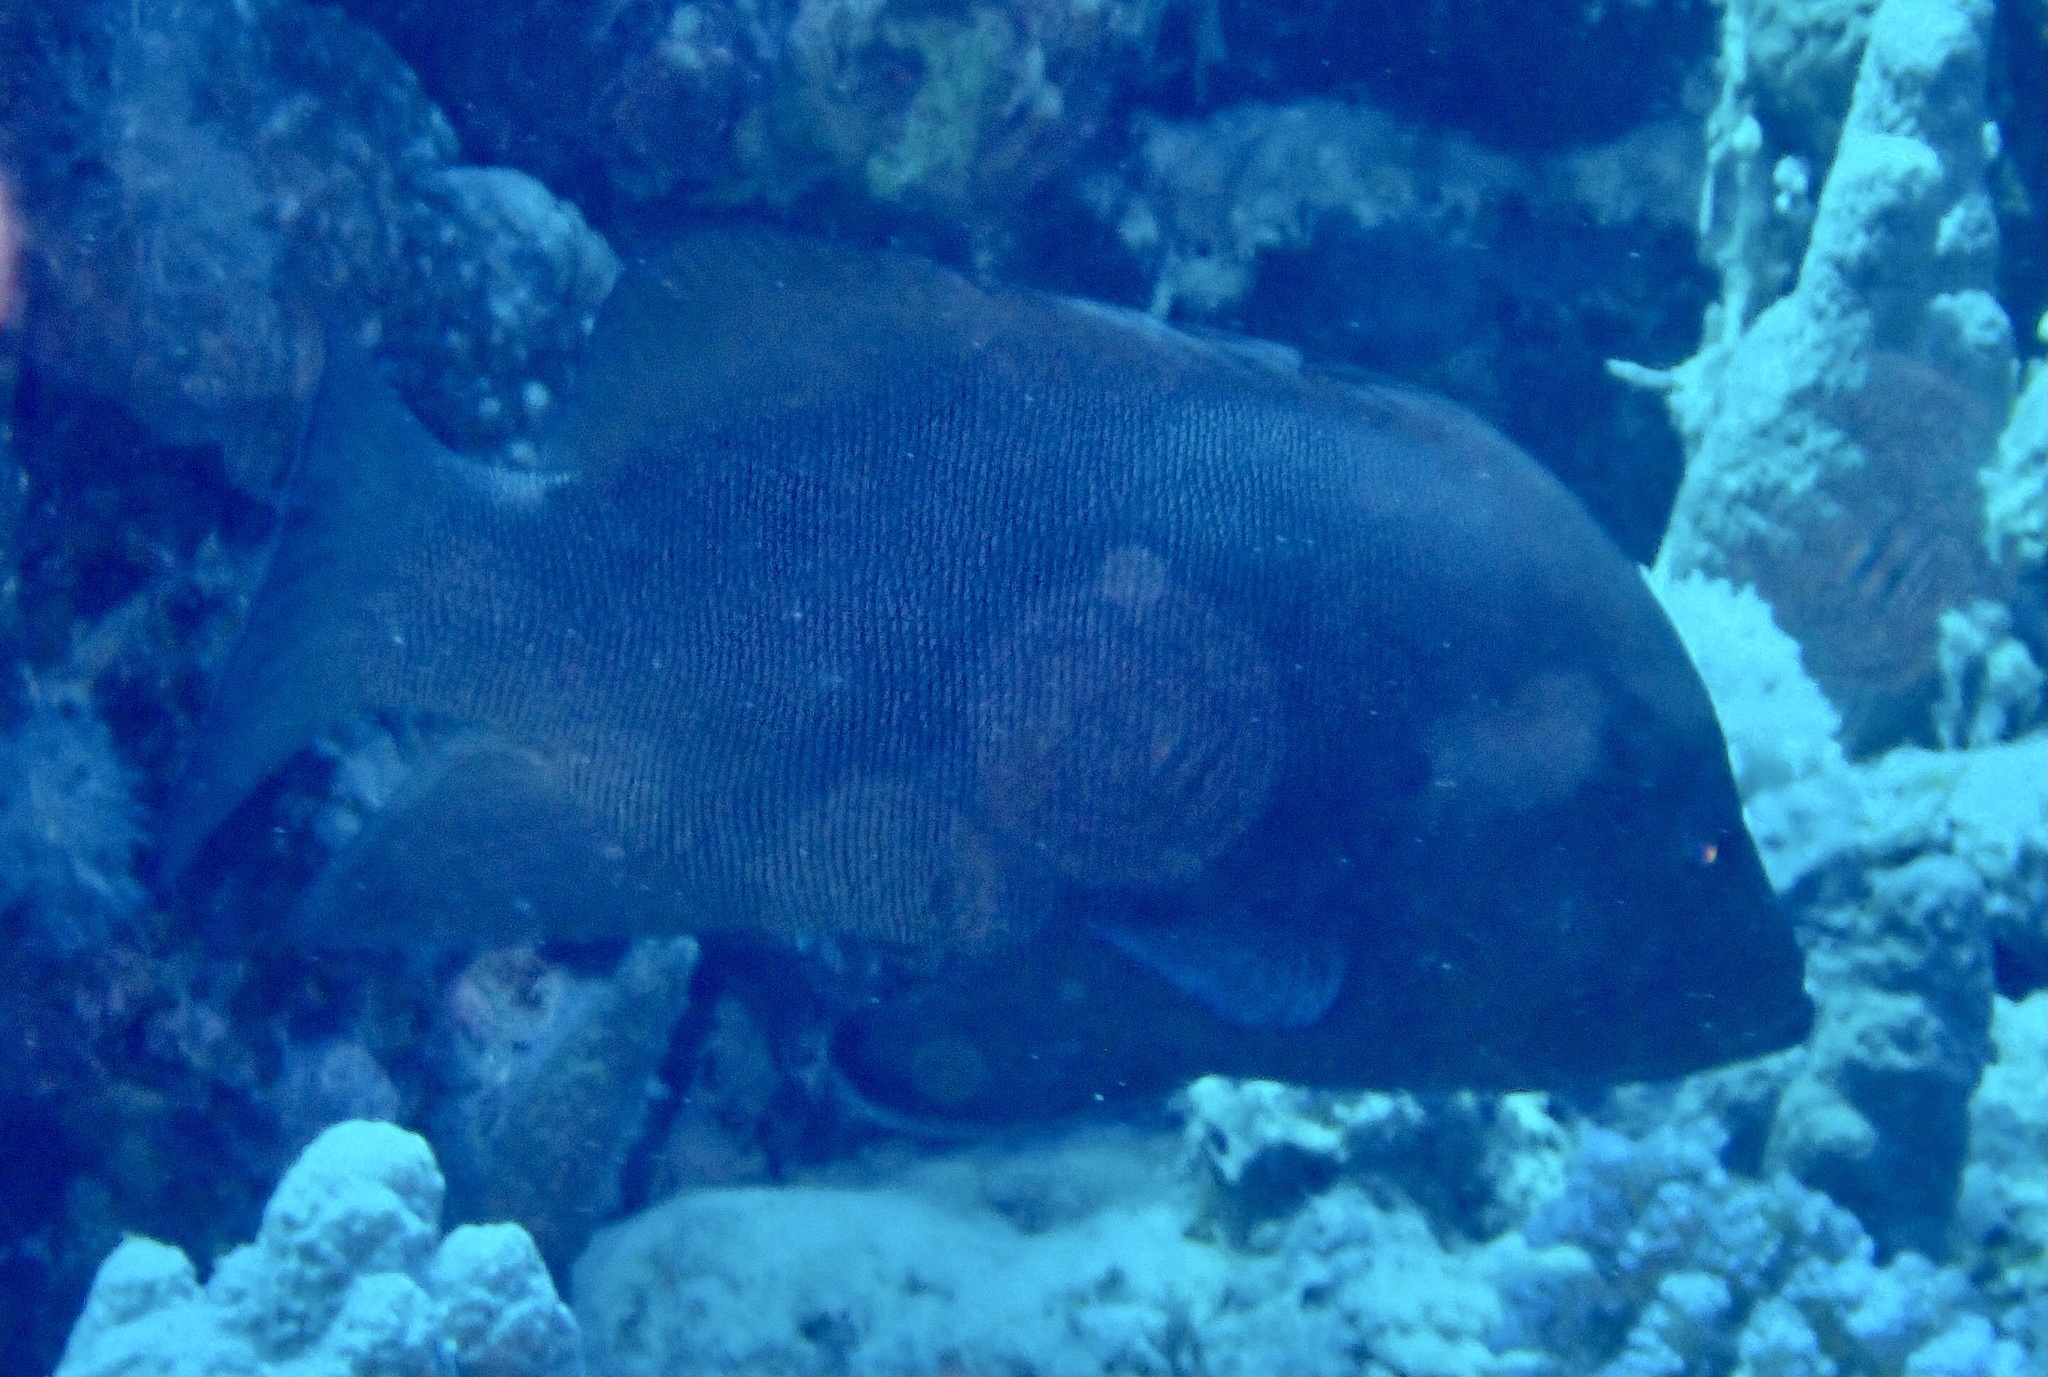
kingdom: Animalia
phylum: Chordata
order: Perciformes
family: Serranidae
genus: Aethaloperca
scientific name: Aethaloperca rogaa
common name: Redmouth grouper
